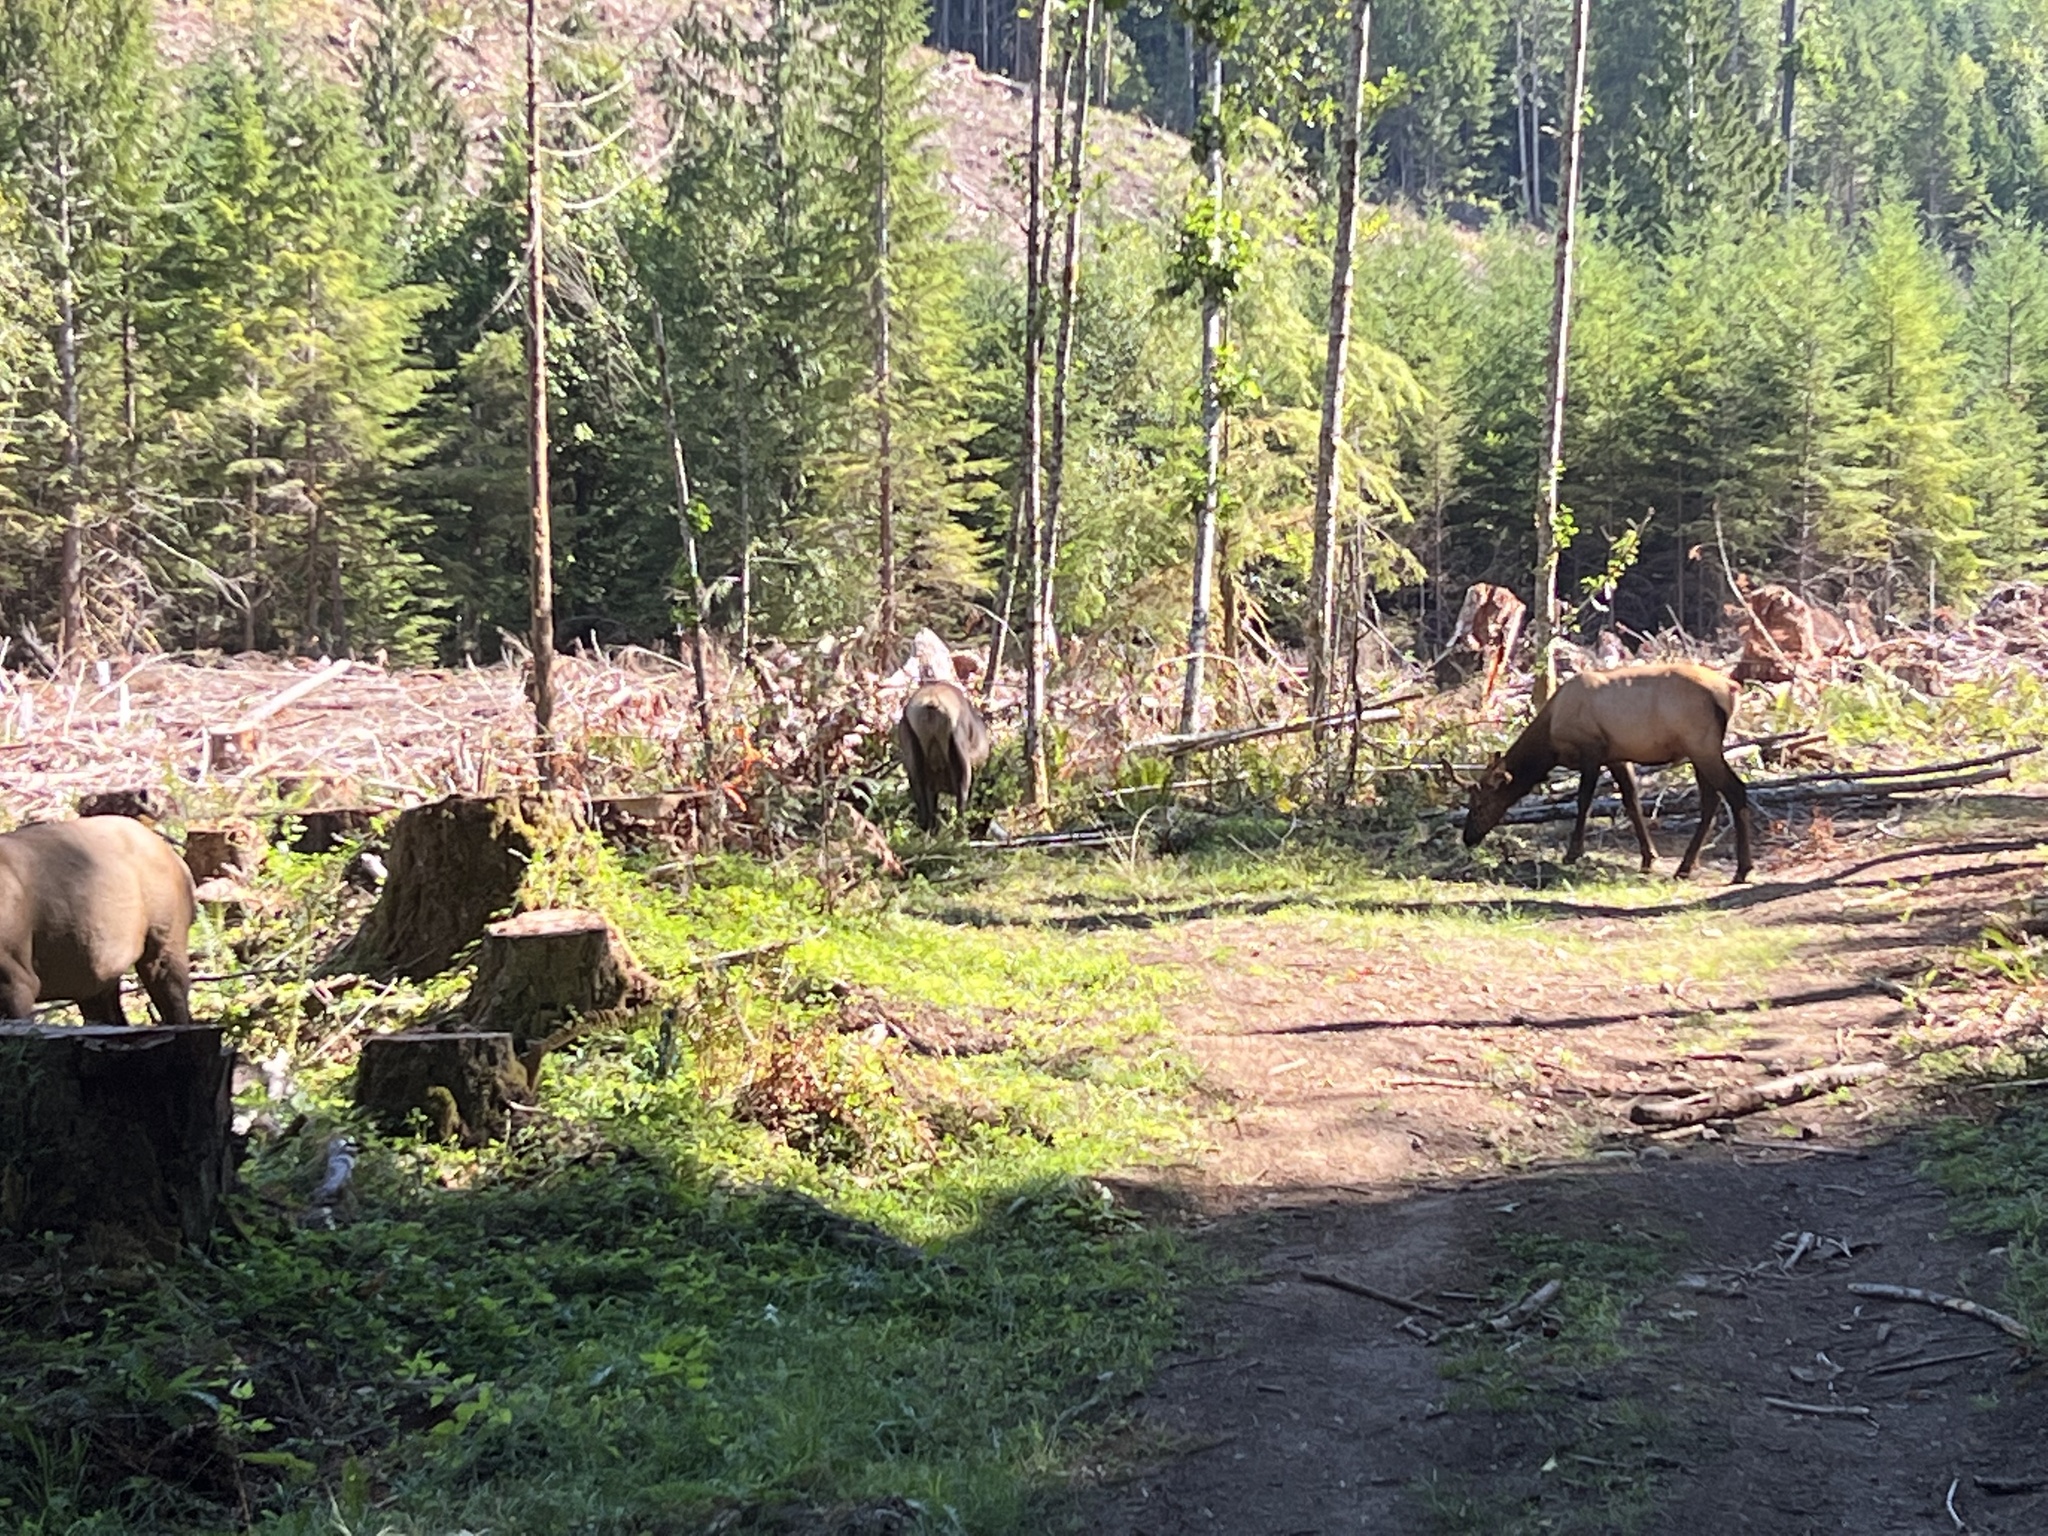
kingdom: Animalia
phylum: Chordata
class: Mammalia
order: Artiodactyla
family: Cervidae
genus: Cervus
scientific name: Cervus elaphus
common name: Red deer
